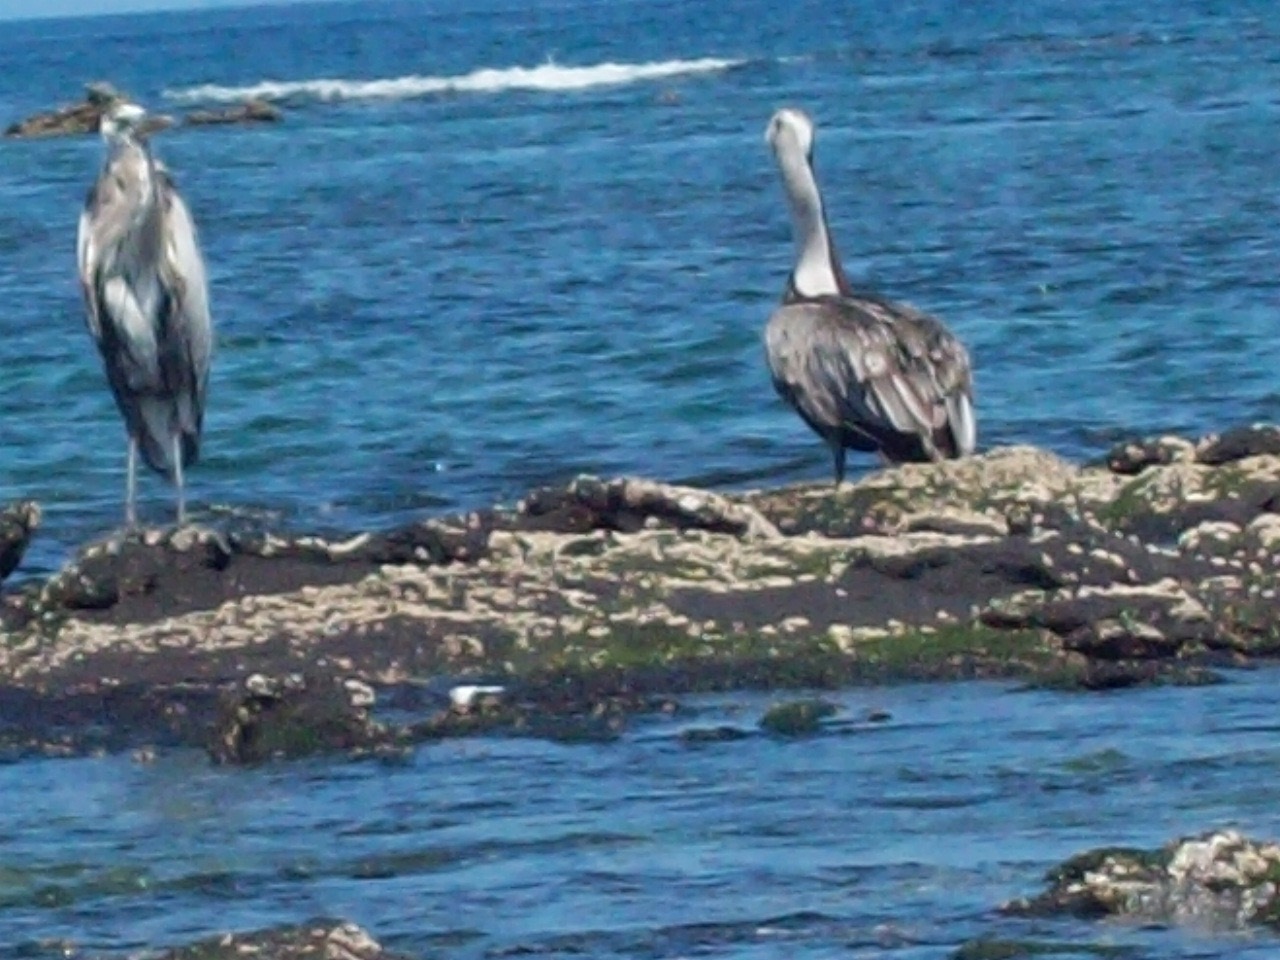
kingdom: Animalia
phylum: Chordata
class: Aves
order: Pelecaniformes
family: Pelecanidae
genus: Pelecanus
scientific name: Pelecanus occidentalis
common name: Brown pelican
